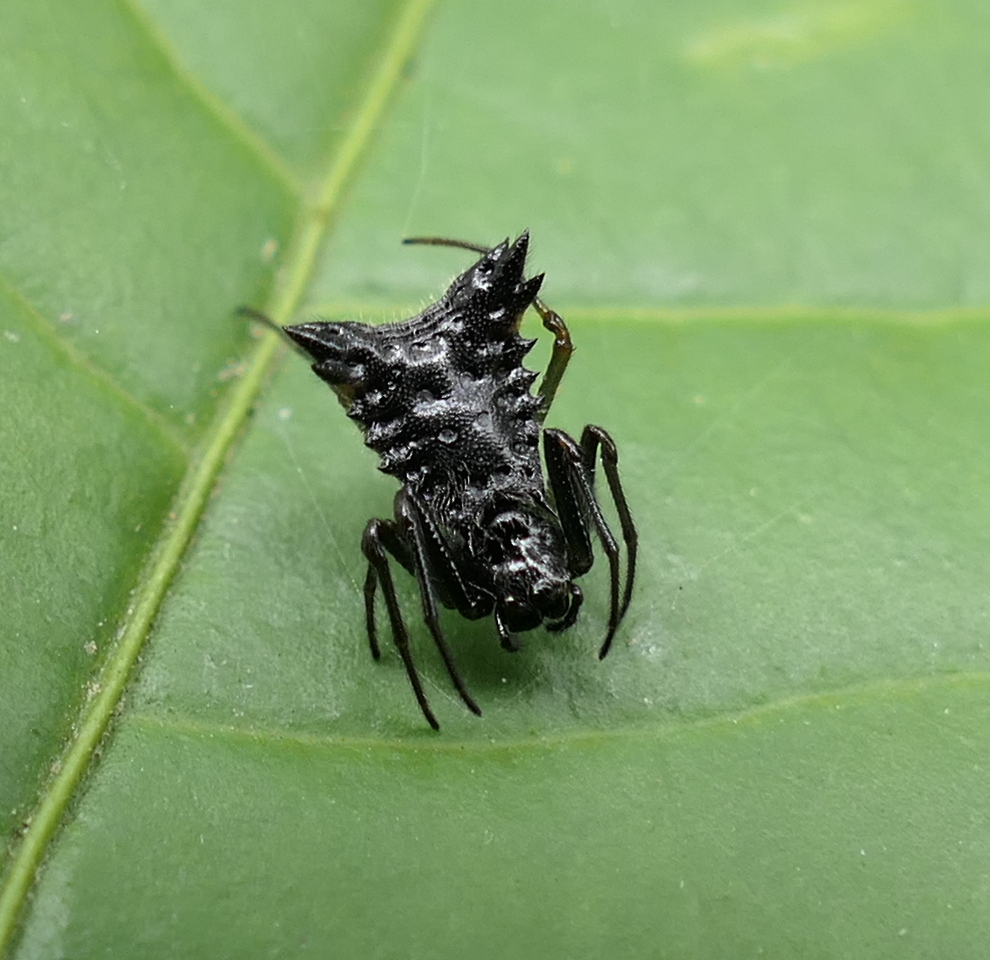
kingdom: Animalia
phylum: Arthropoda
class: Arachnida
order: Araneae
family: Araneidae
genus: Micrathena
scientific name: Micrathena triangularis
